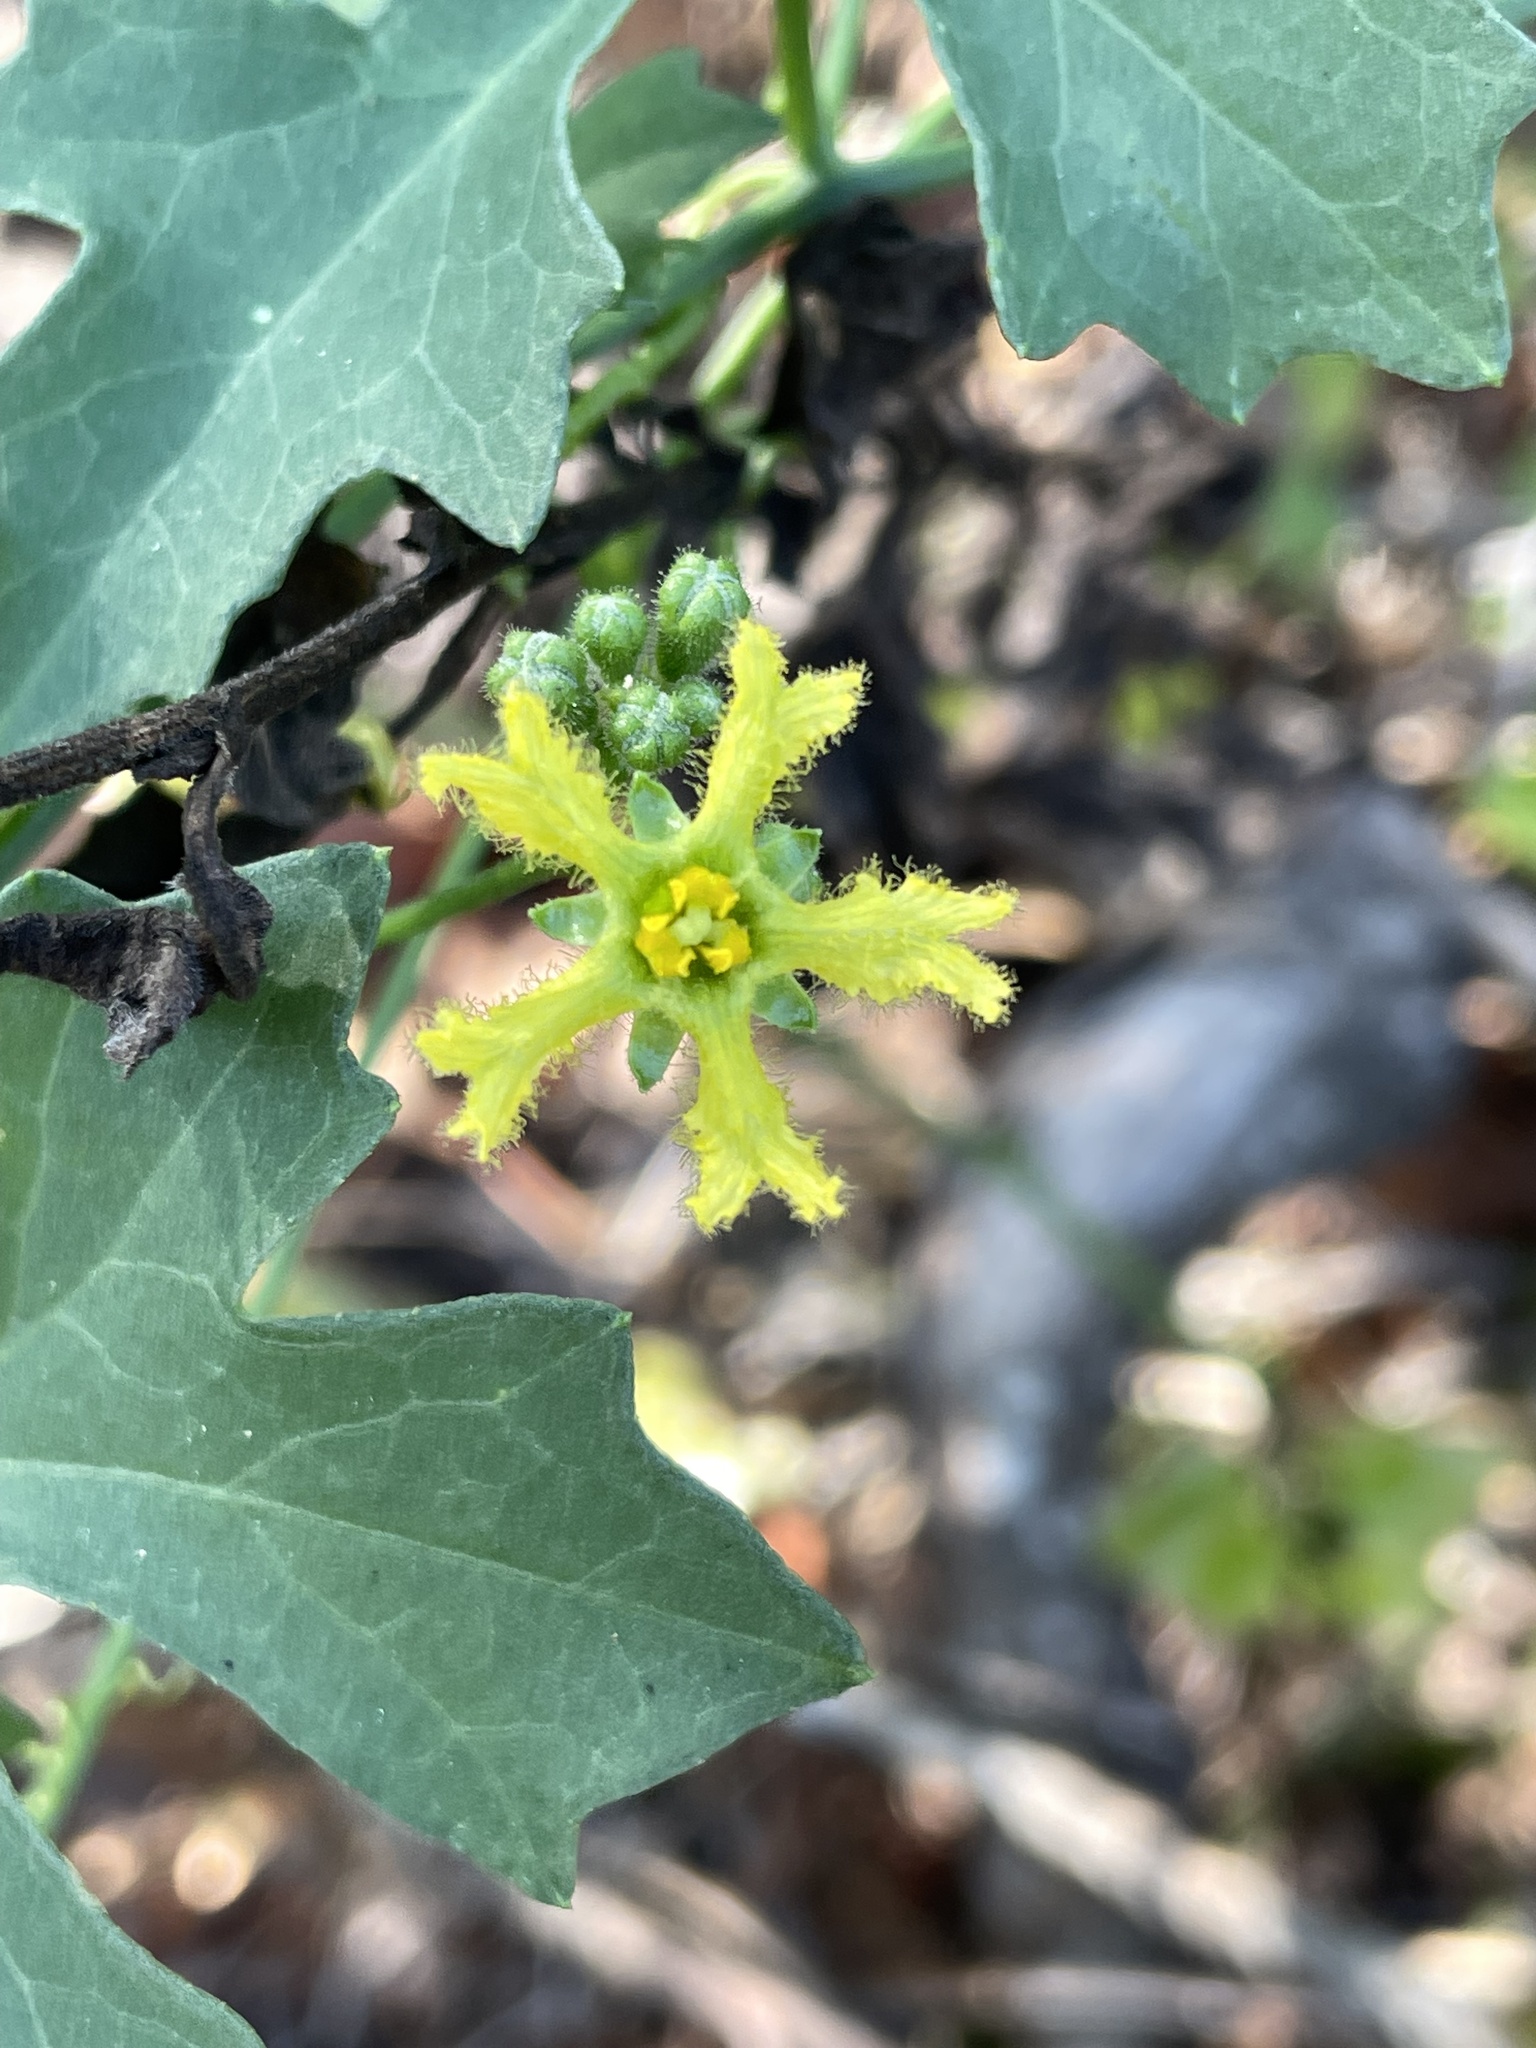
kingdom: Plantae
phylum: Tracheophyta
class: Magnoliopsida
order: Cucurbitales
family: Cucurbitaceae
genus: Ibervillea
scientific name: Ibervillea lindheimeri
